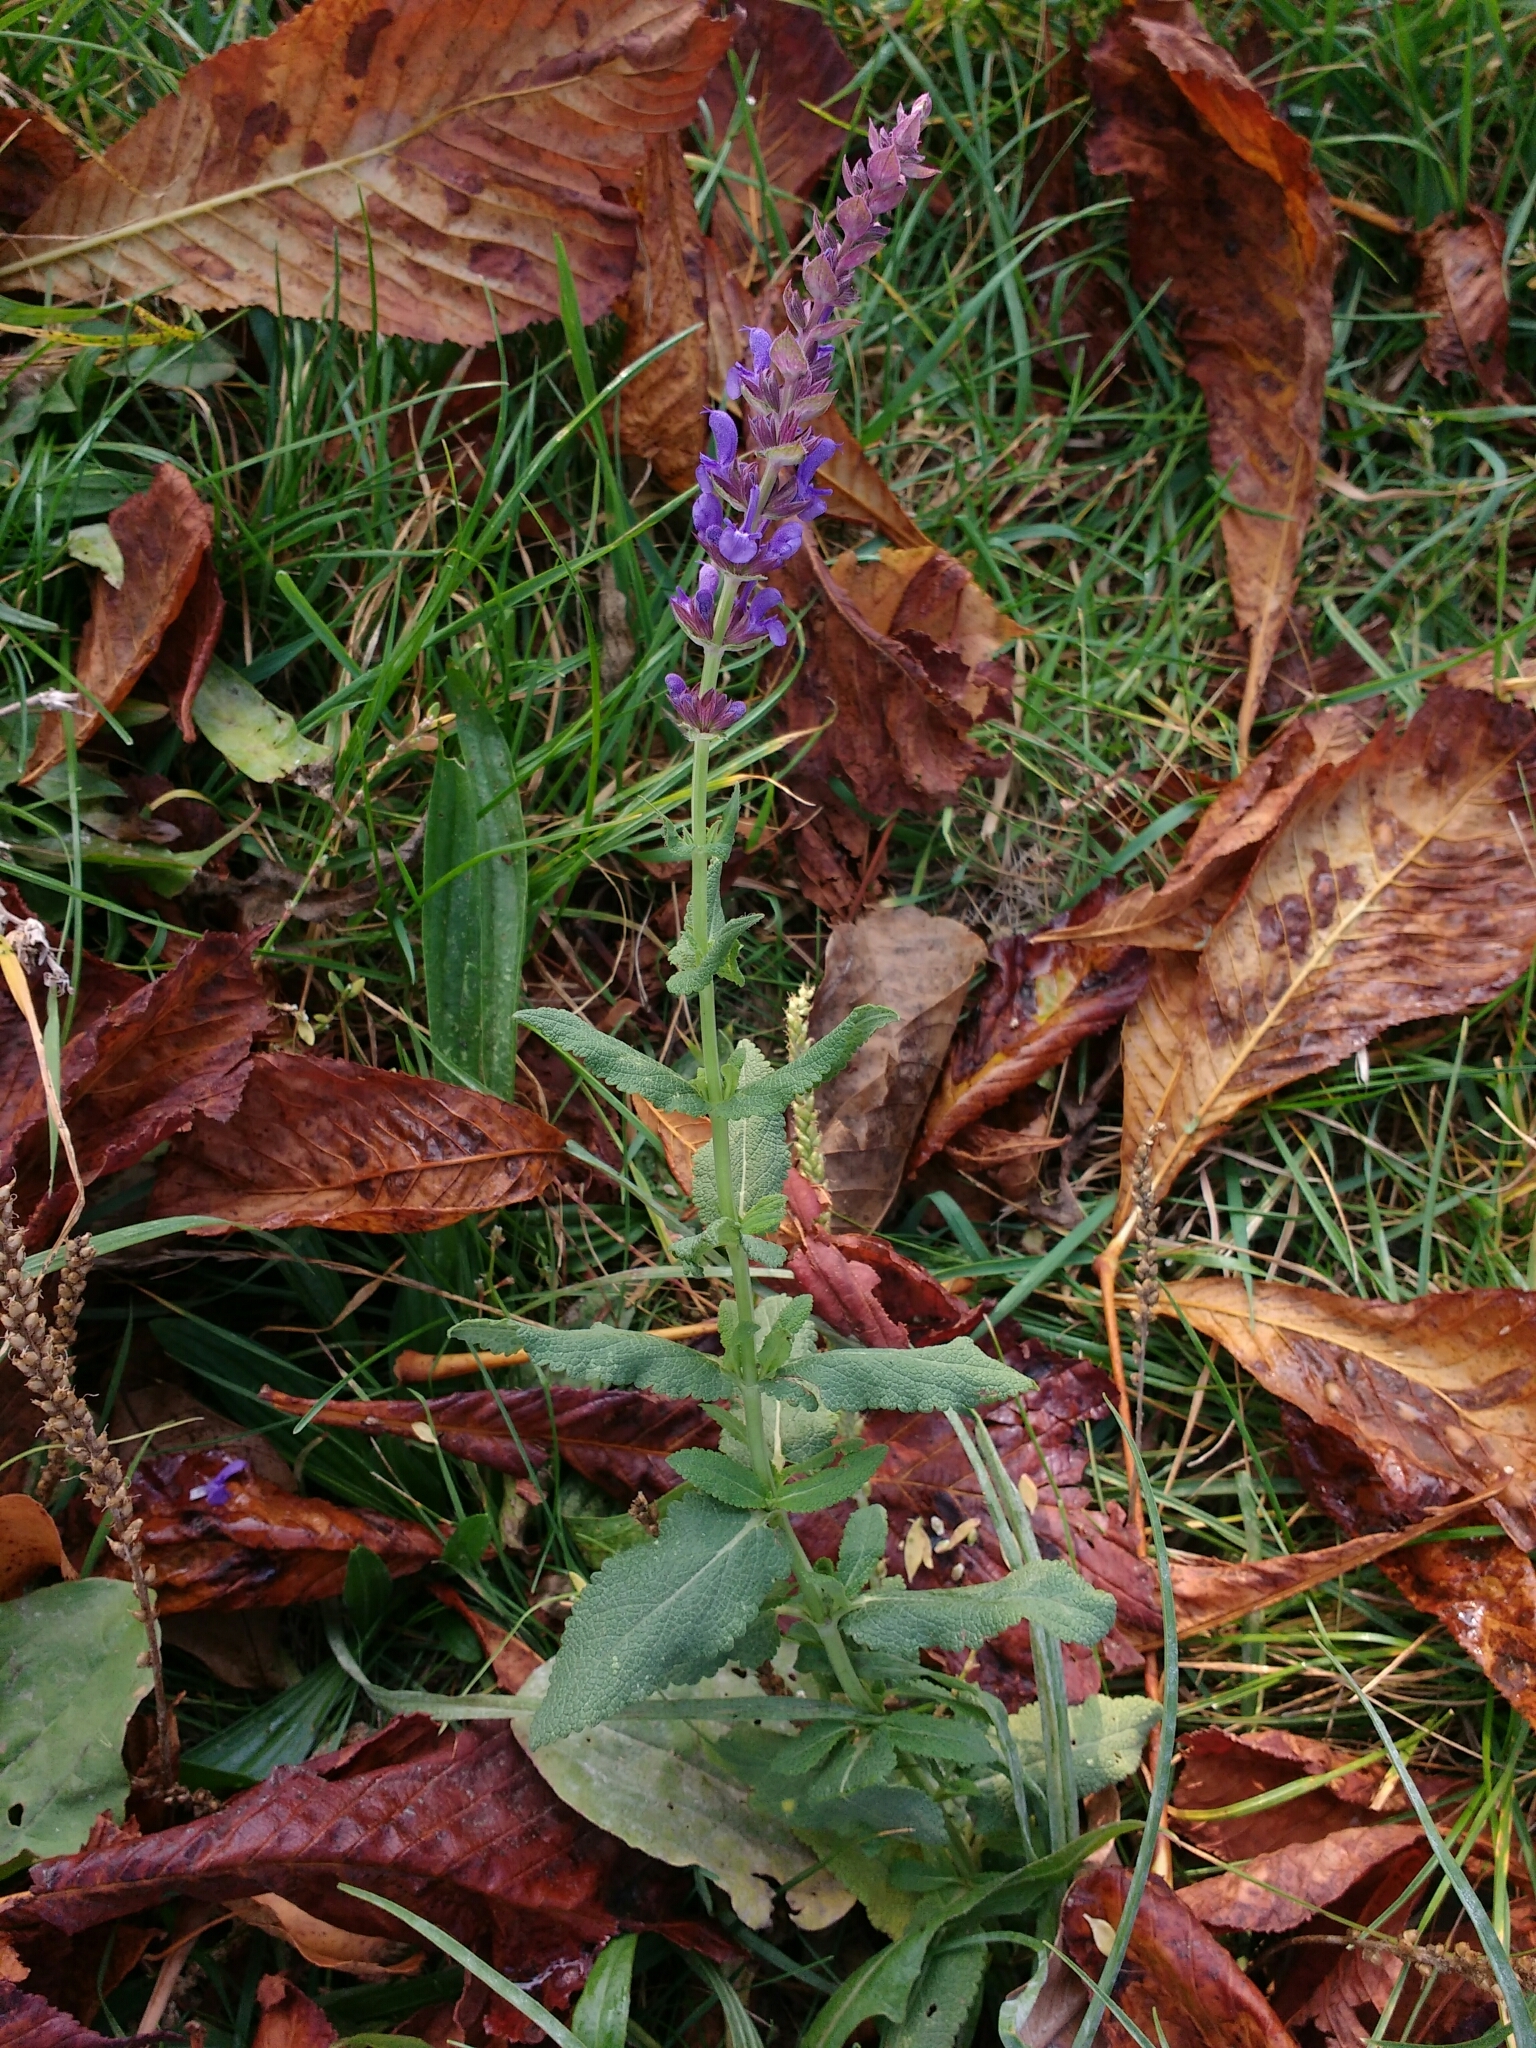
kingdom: Plantae
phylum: Tracheophyta
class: Magnoliopsida
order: Lamiales
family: Lamiaceae
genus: Salvia
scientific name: Salvia nemorosa
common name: Balkan clary
